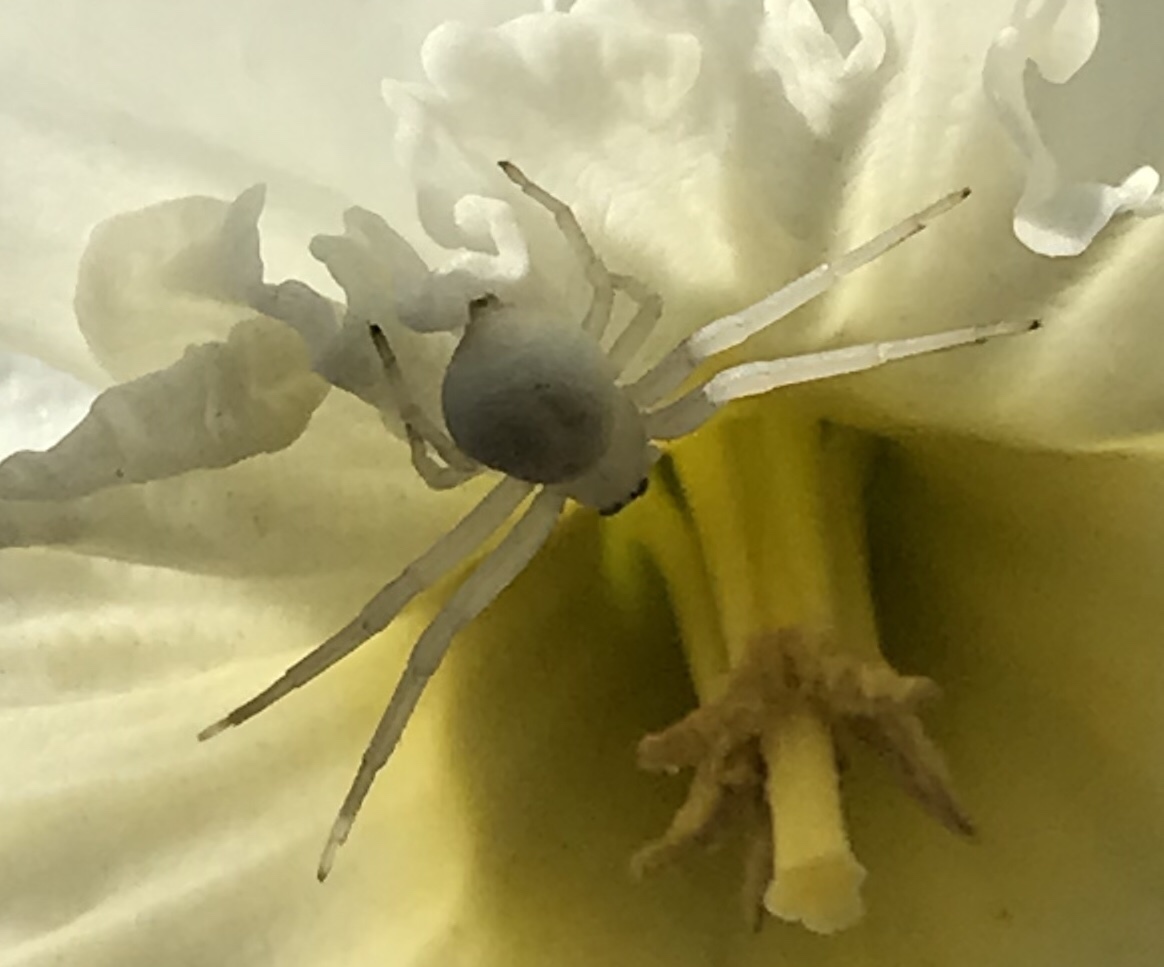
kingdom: Animalia
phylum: Arthropoda
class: Arachnida
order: Araneae
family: Thomisidae
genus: Misumena
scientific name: Misumena vatia
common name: Goldenrod crab spider
